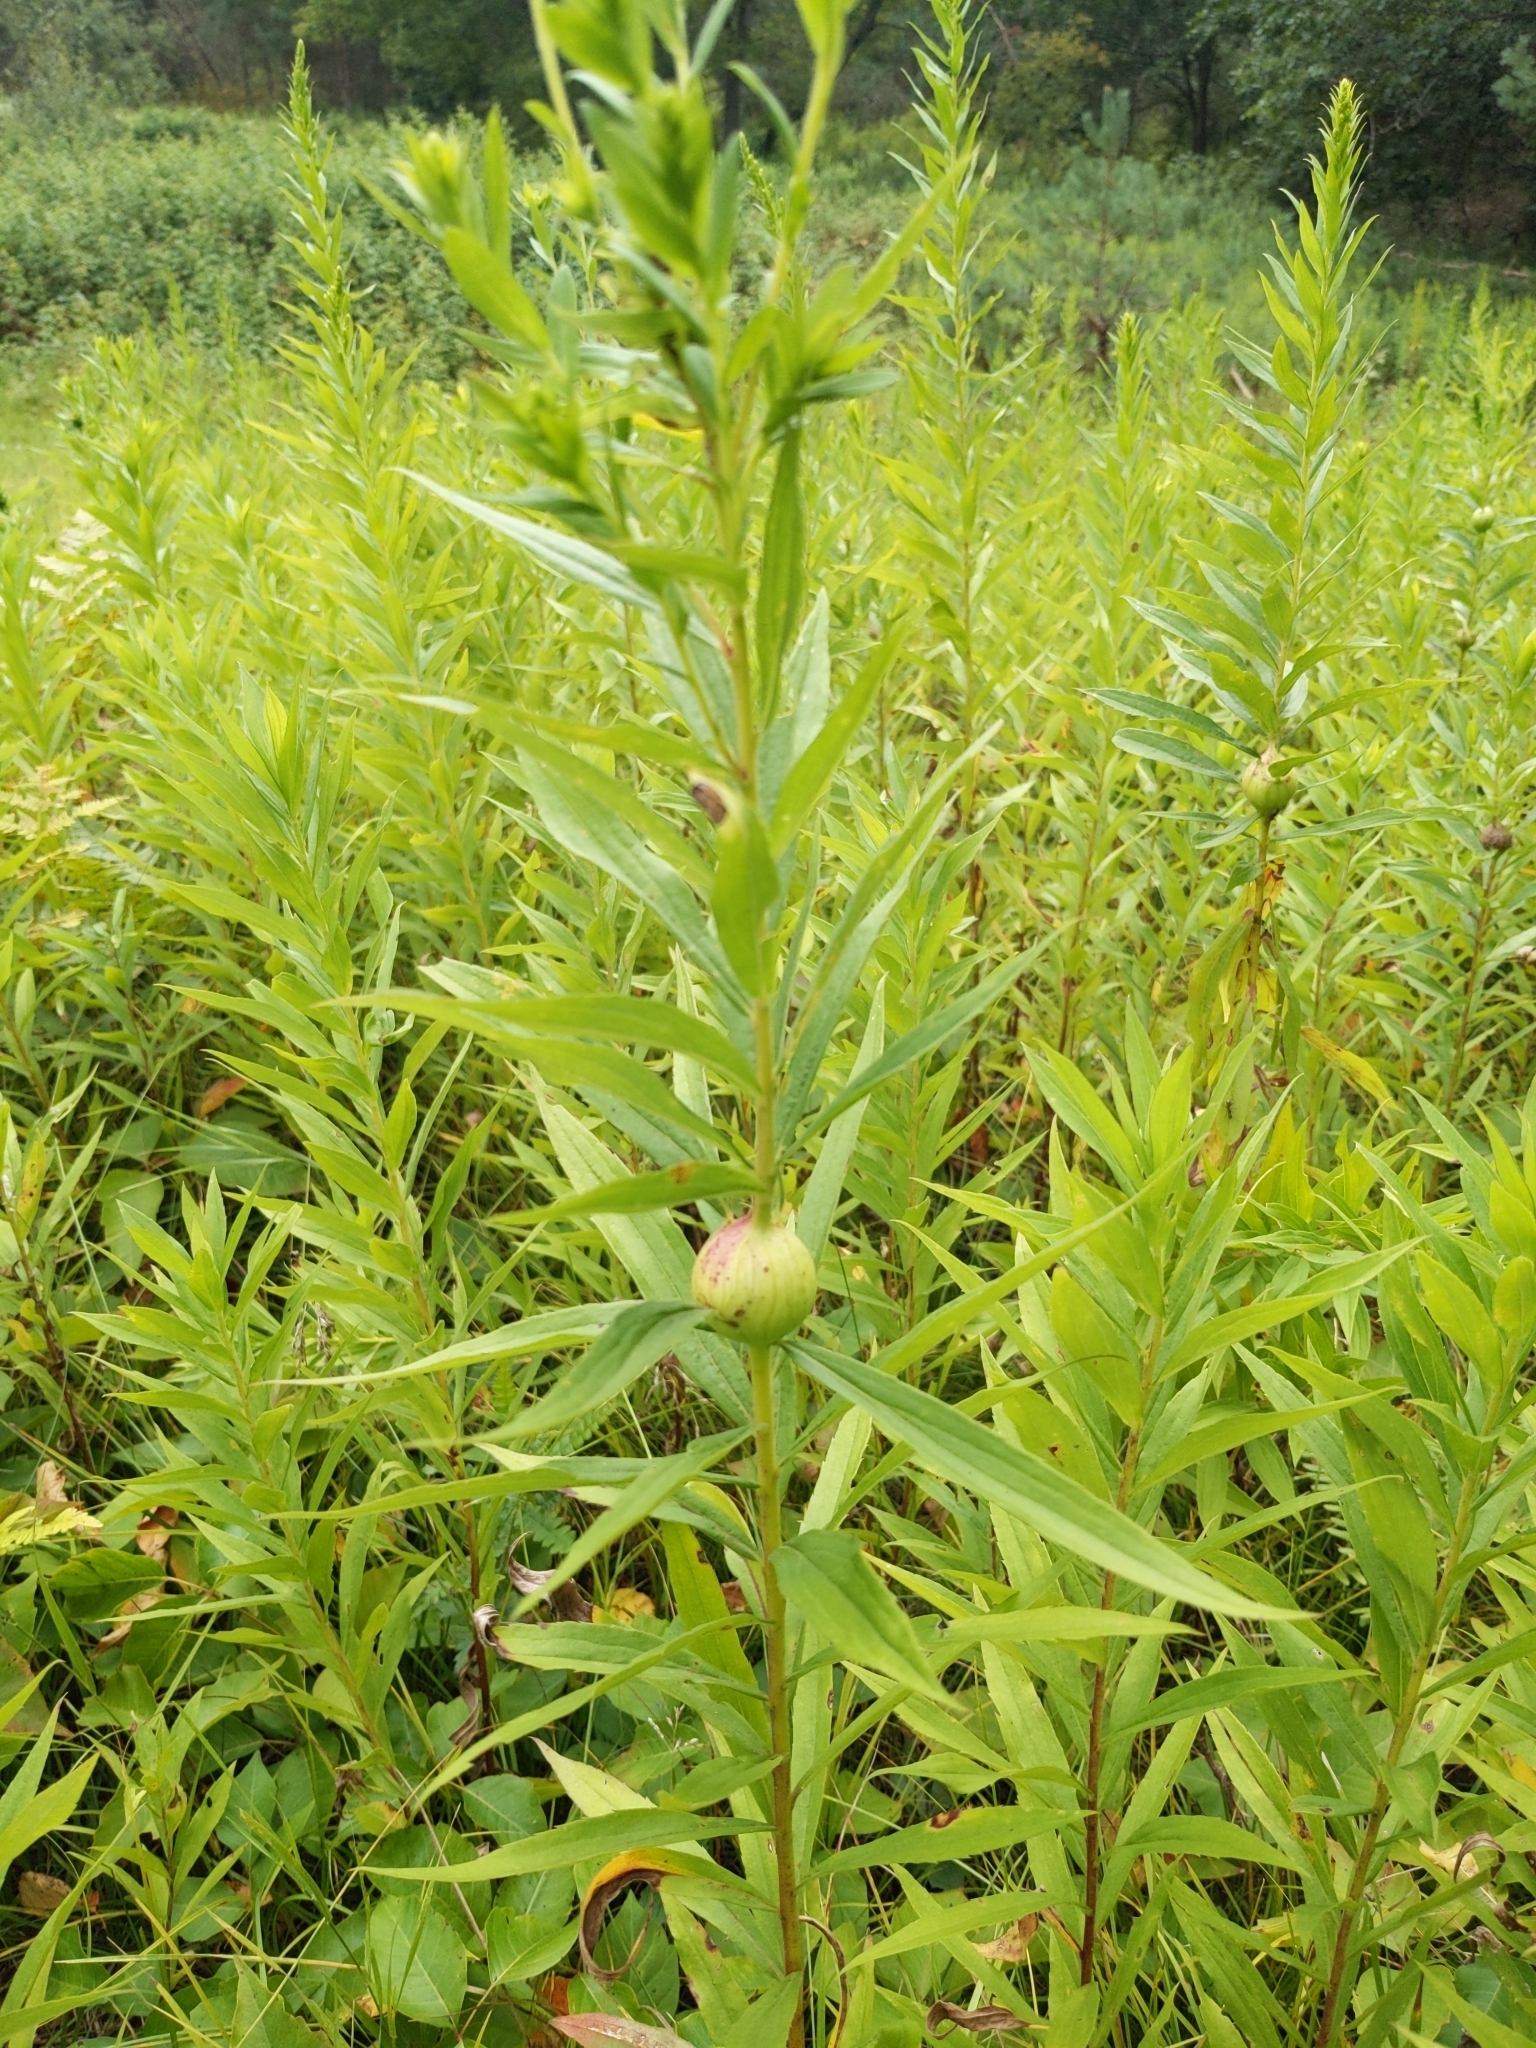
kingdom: Animalia
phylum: Arthropoda
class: Insecta
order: Diptera
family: Tephritidae
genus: Eurosta
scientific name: Eurosta solidaginis
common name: Goldenrod gall fly
